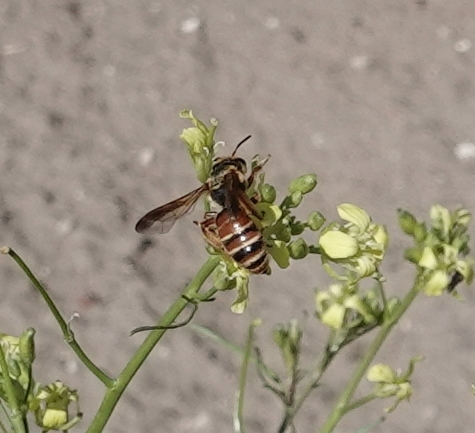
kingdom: Animalia
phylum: Arthropoda
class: Insecta
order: Hymenoptera
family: Andrenidae
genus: Andrena
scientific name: Andrena prunorum
